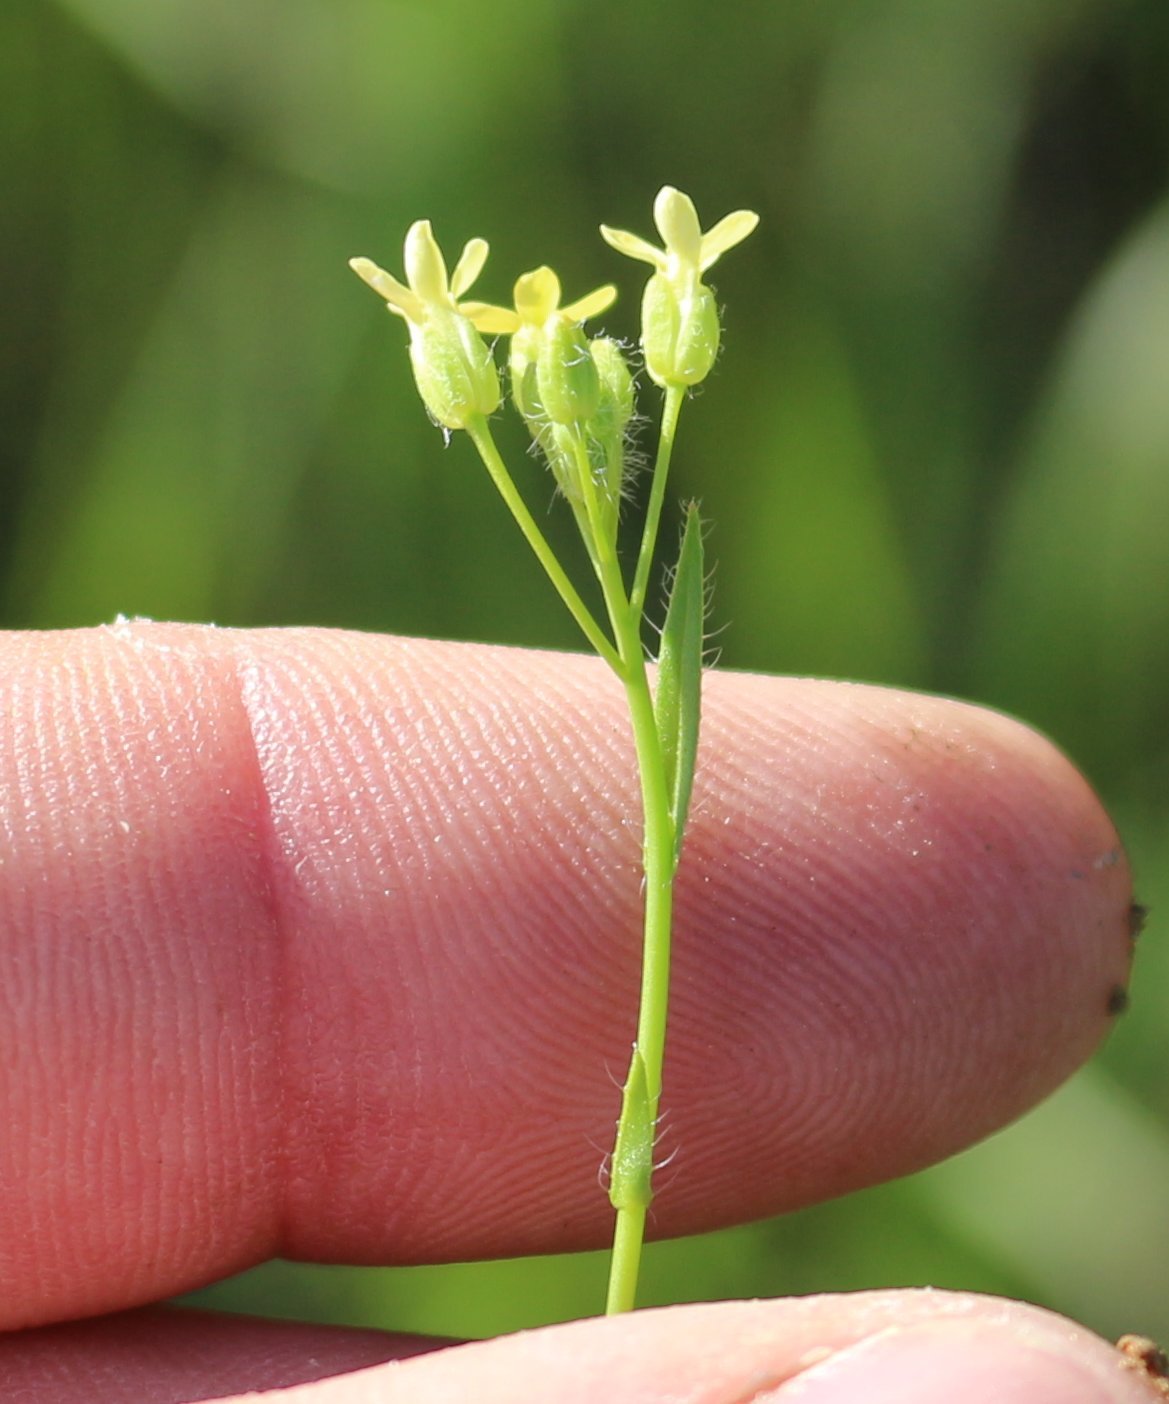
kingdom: Plantae
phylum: Tracheophyta
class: Magnoliopsida
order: Brassicales
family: Brassicaceae
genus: Camelina
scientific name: Camelina microcarpa
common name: Lesser gold-of-pleasure
